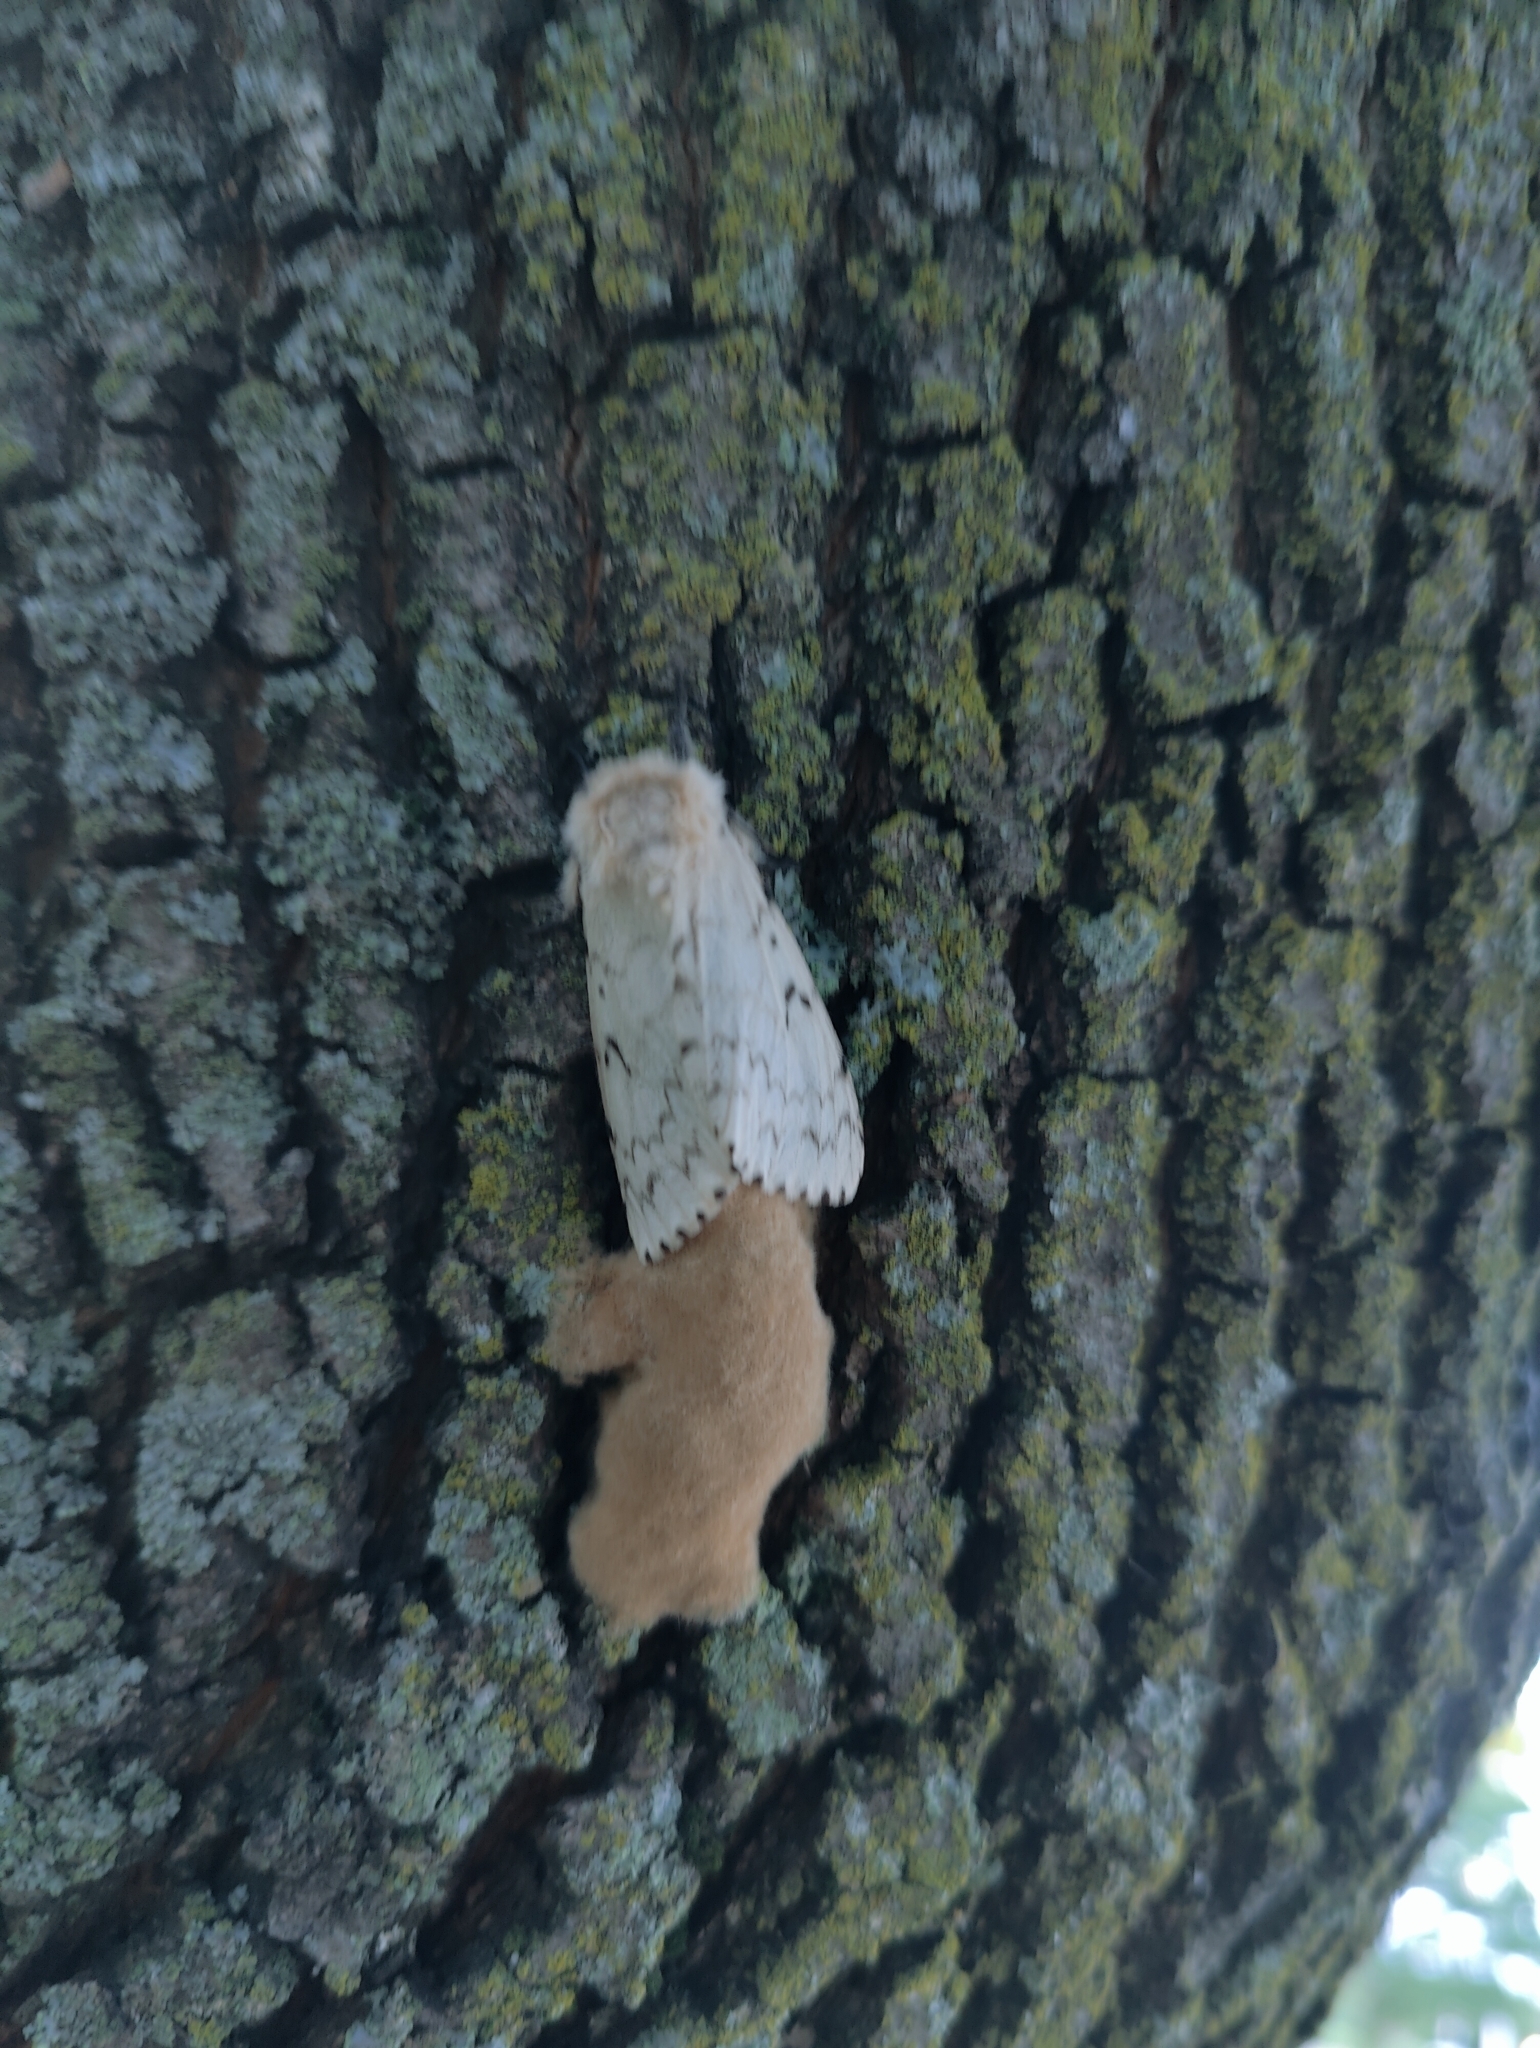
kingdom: Animalia
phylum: Arthropoda
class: Insecta
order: Lepidoptera
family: Erebidae
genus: Lymantria
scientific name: Lymantria dispar
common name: Gypsy moth
